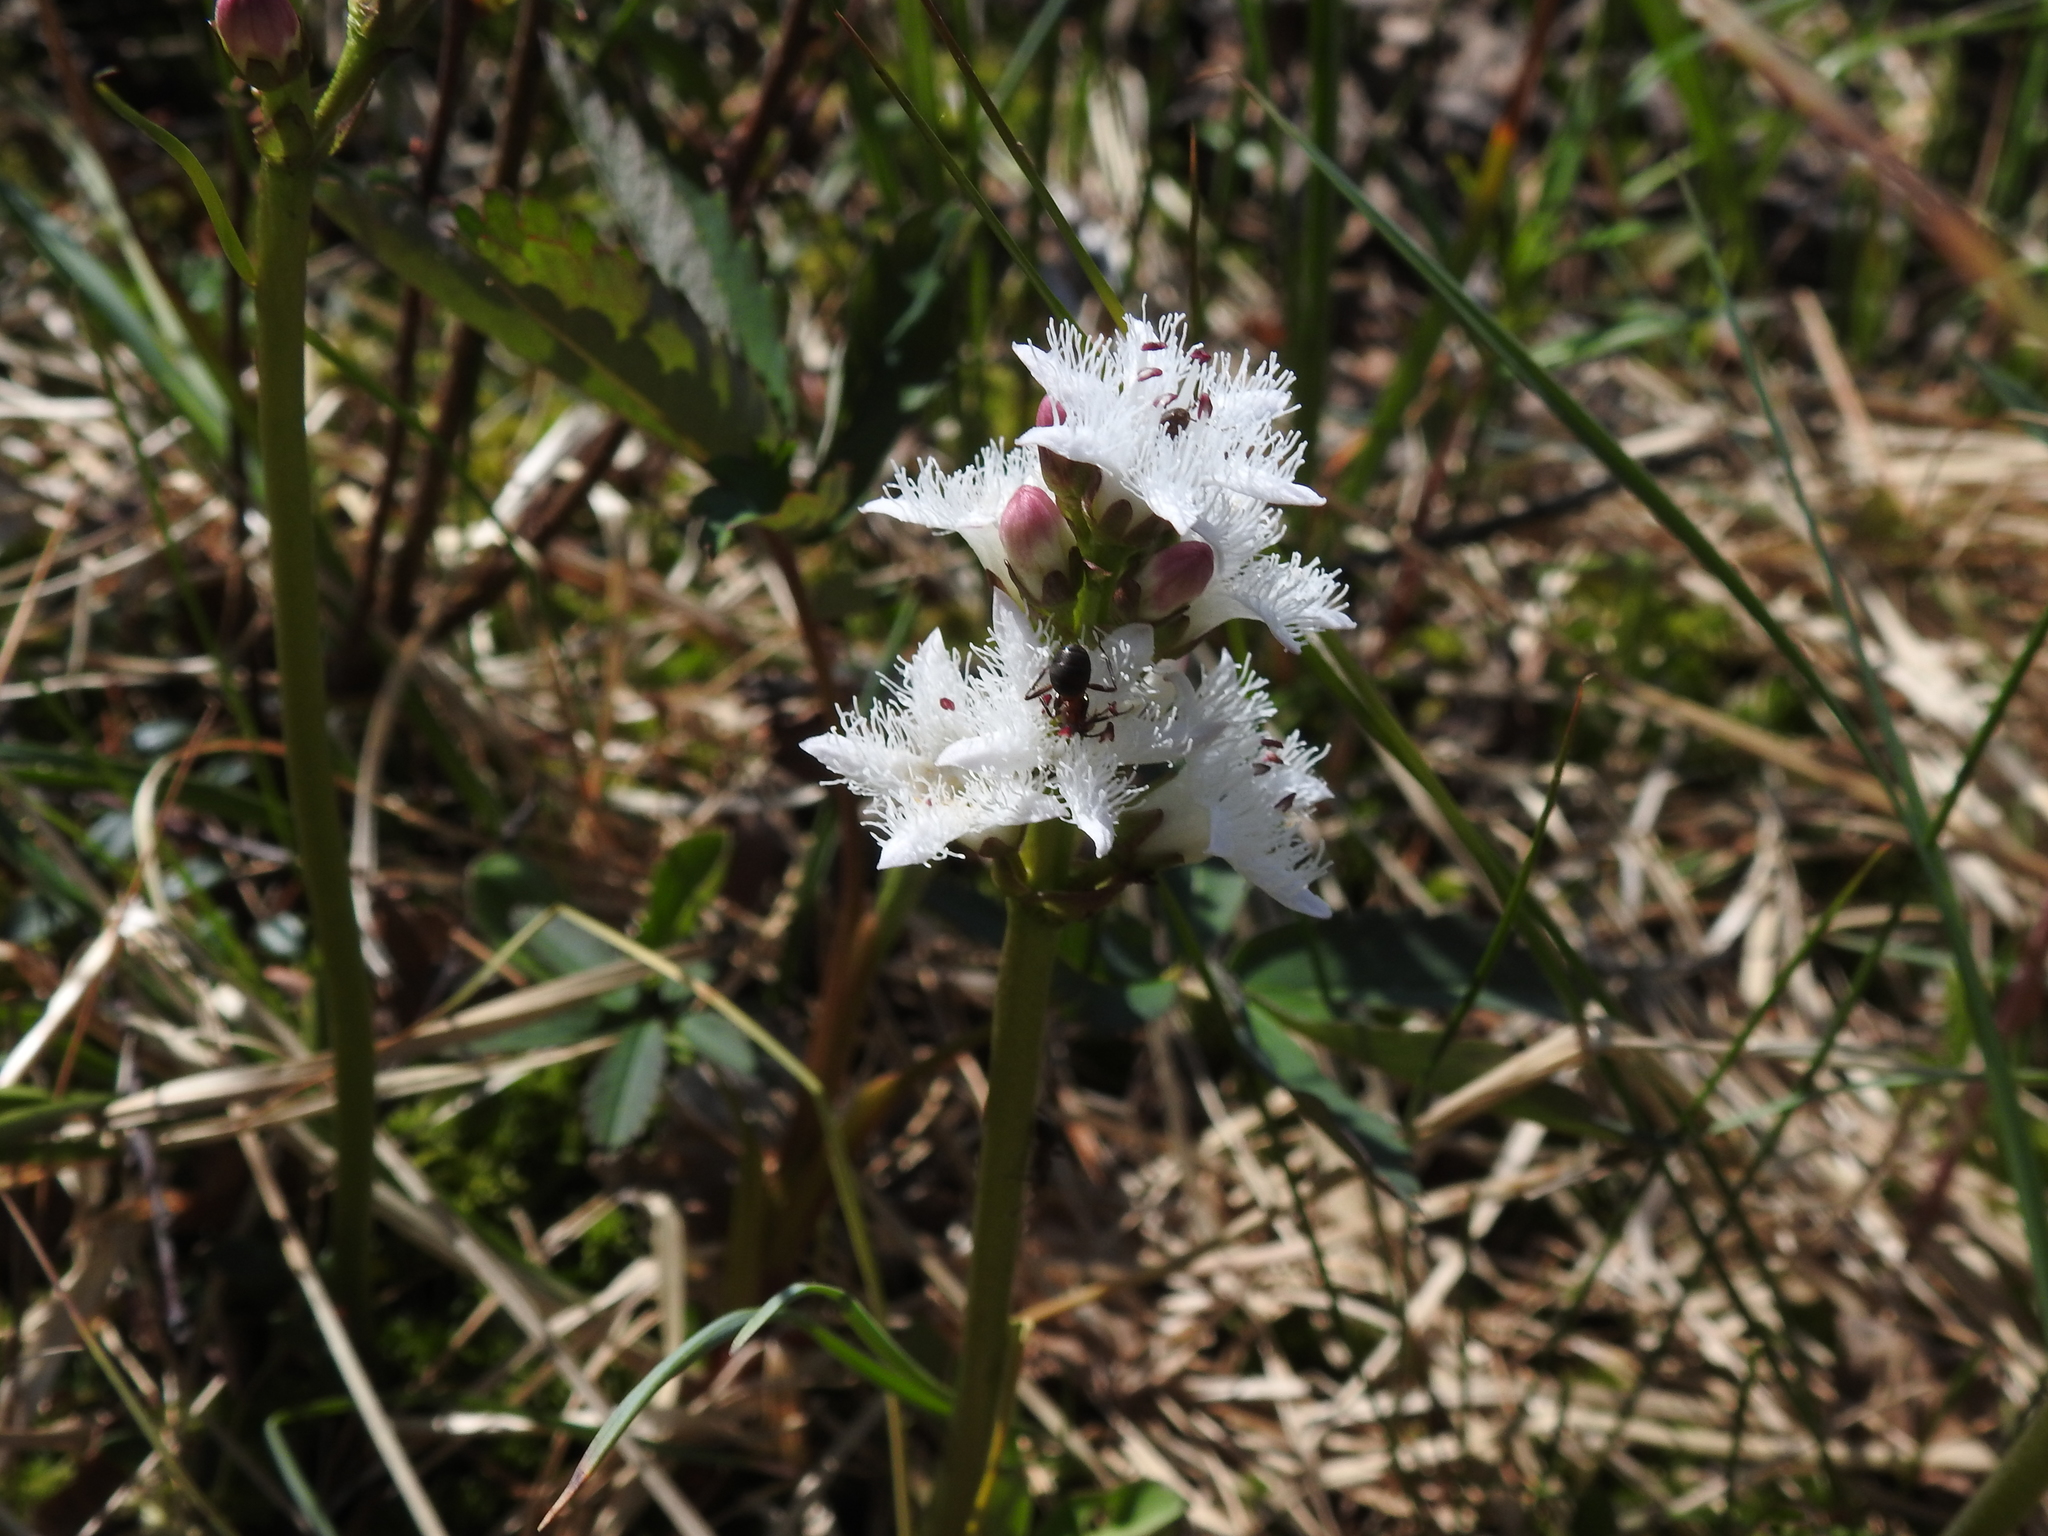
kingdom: Plantae
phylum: Tracheophyta
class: Magnoliopsida
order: Asterales
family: Menyanthaceae
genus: Menyanthes
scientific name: Menyanthes trifoliata
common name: Bogbean
